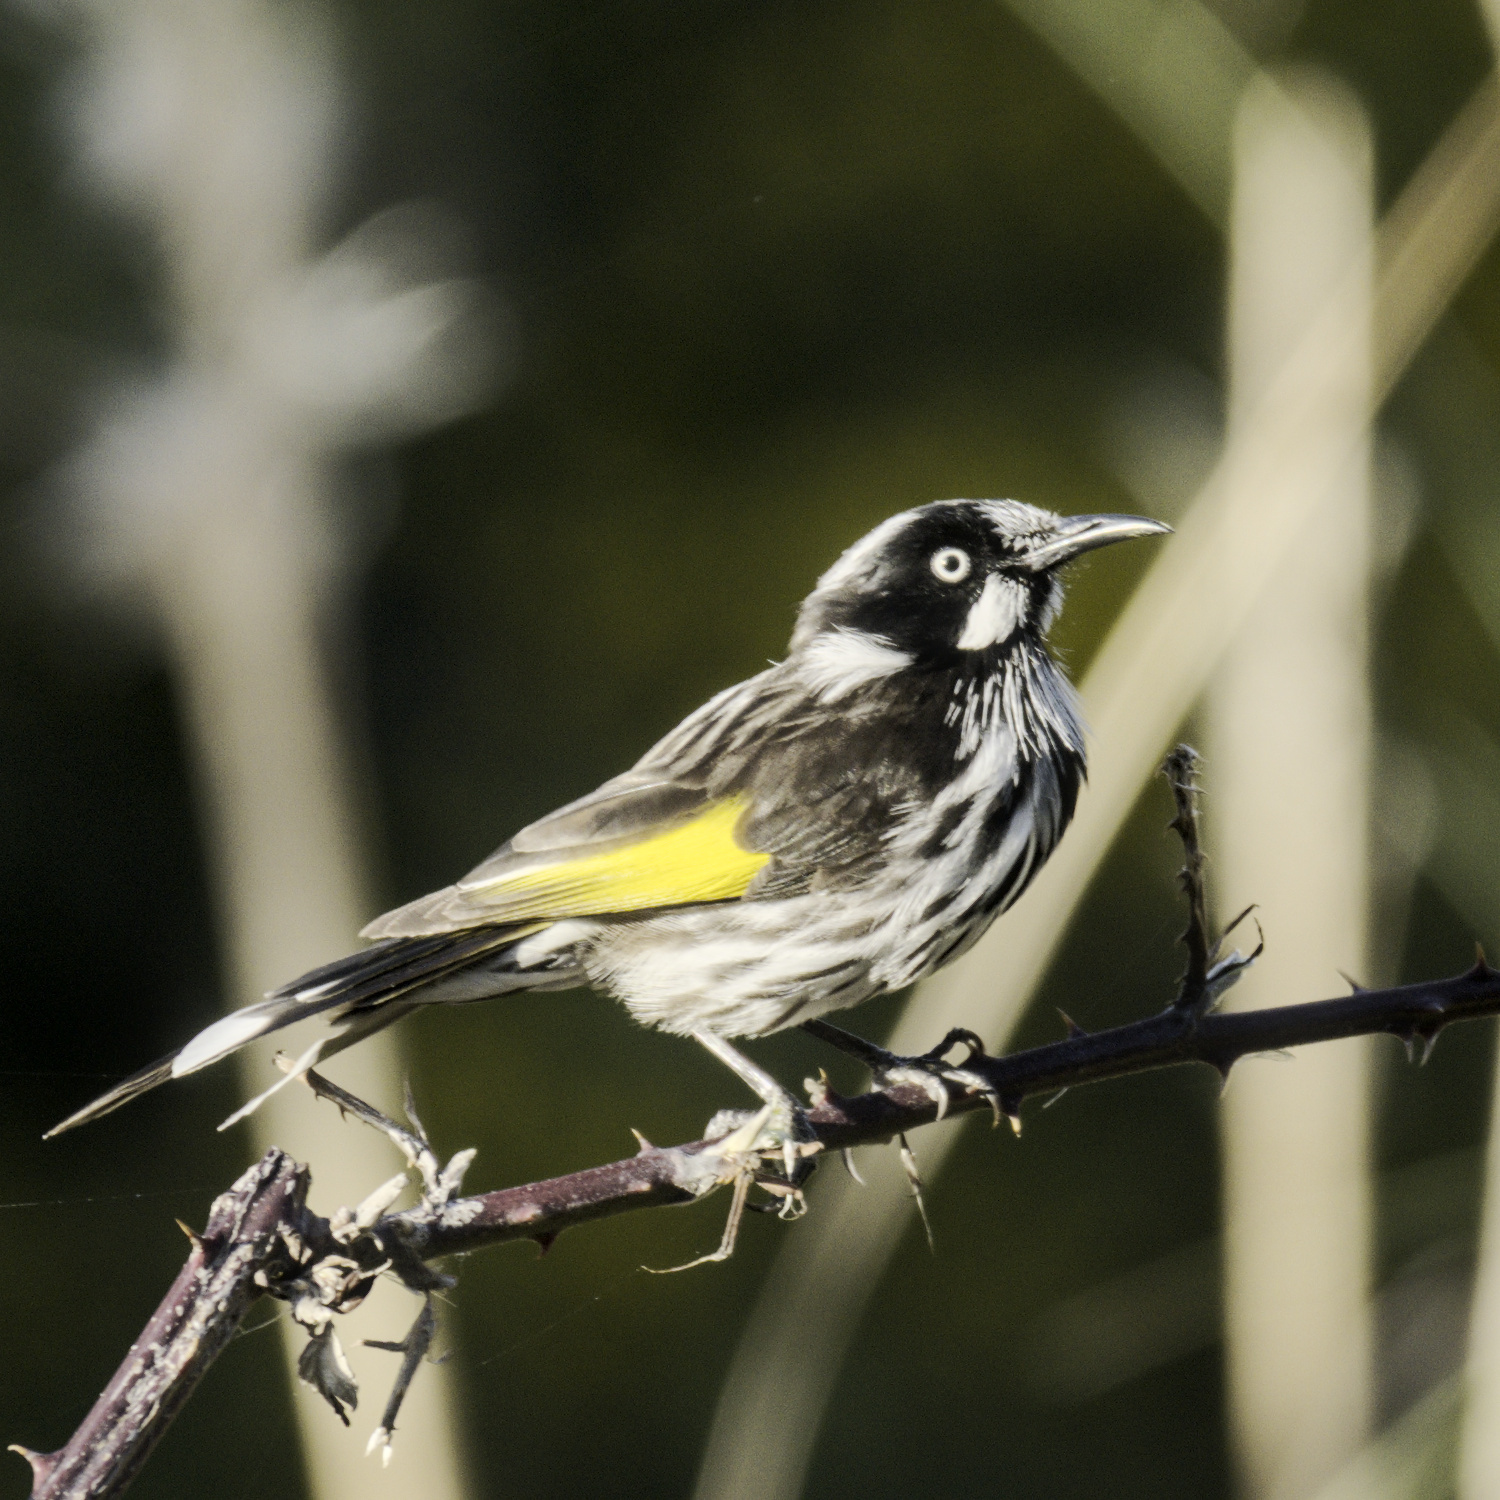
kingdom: Animalia
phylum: Chordata
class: Aves
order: Passeriformes
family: Meliphagidae
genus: Phylidonyris
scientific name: Phylidonyris novaehollandiae
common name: New holland honeyeater
